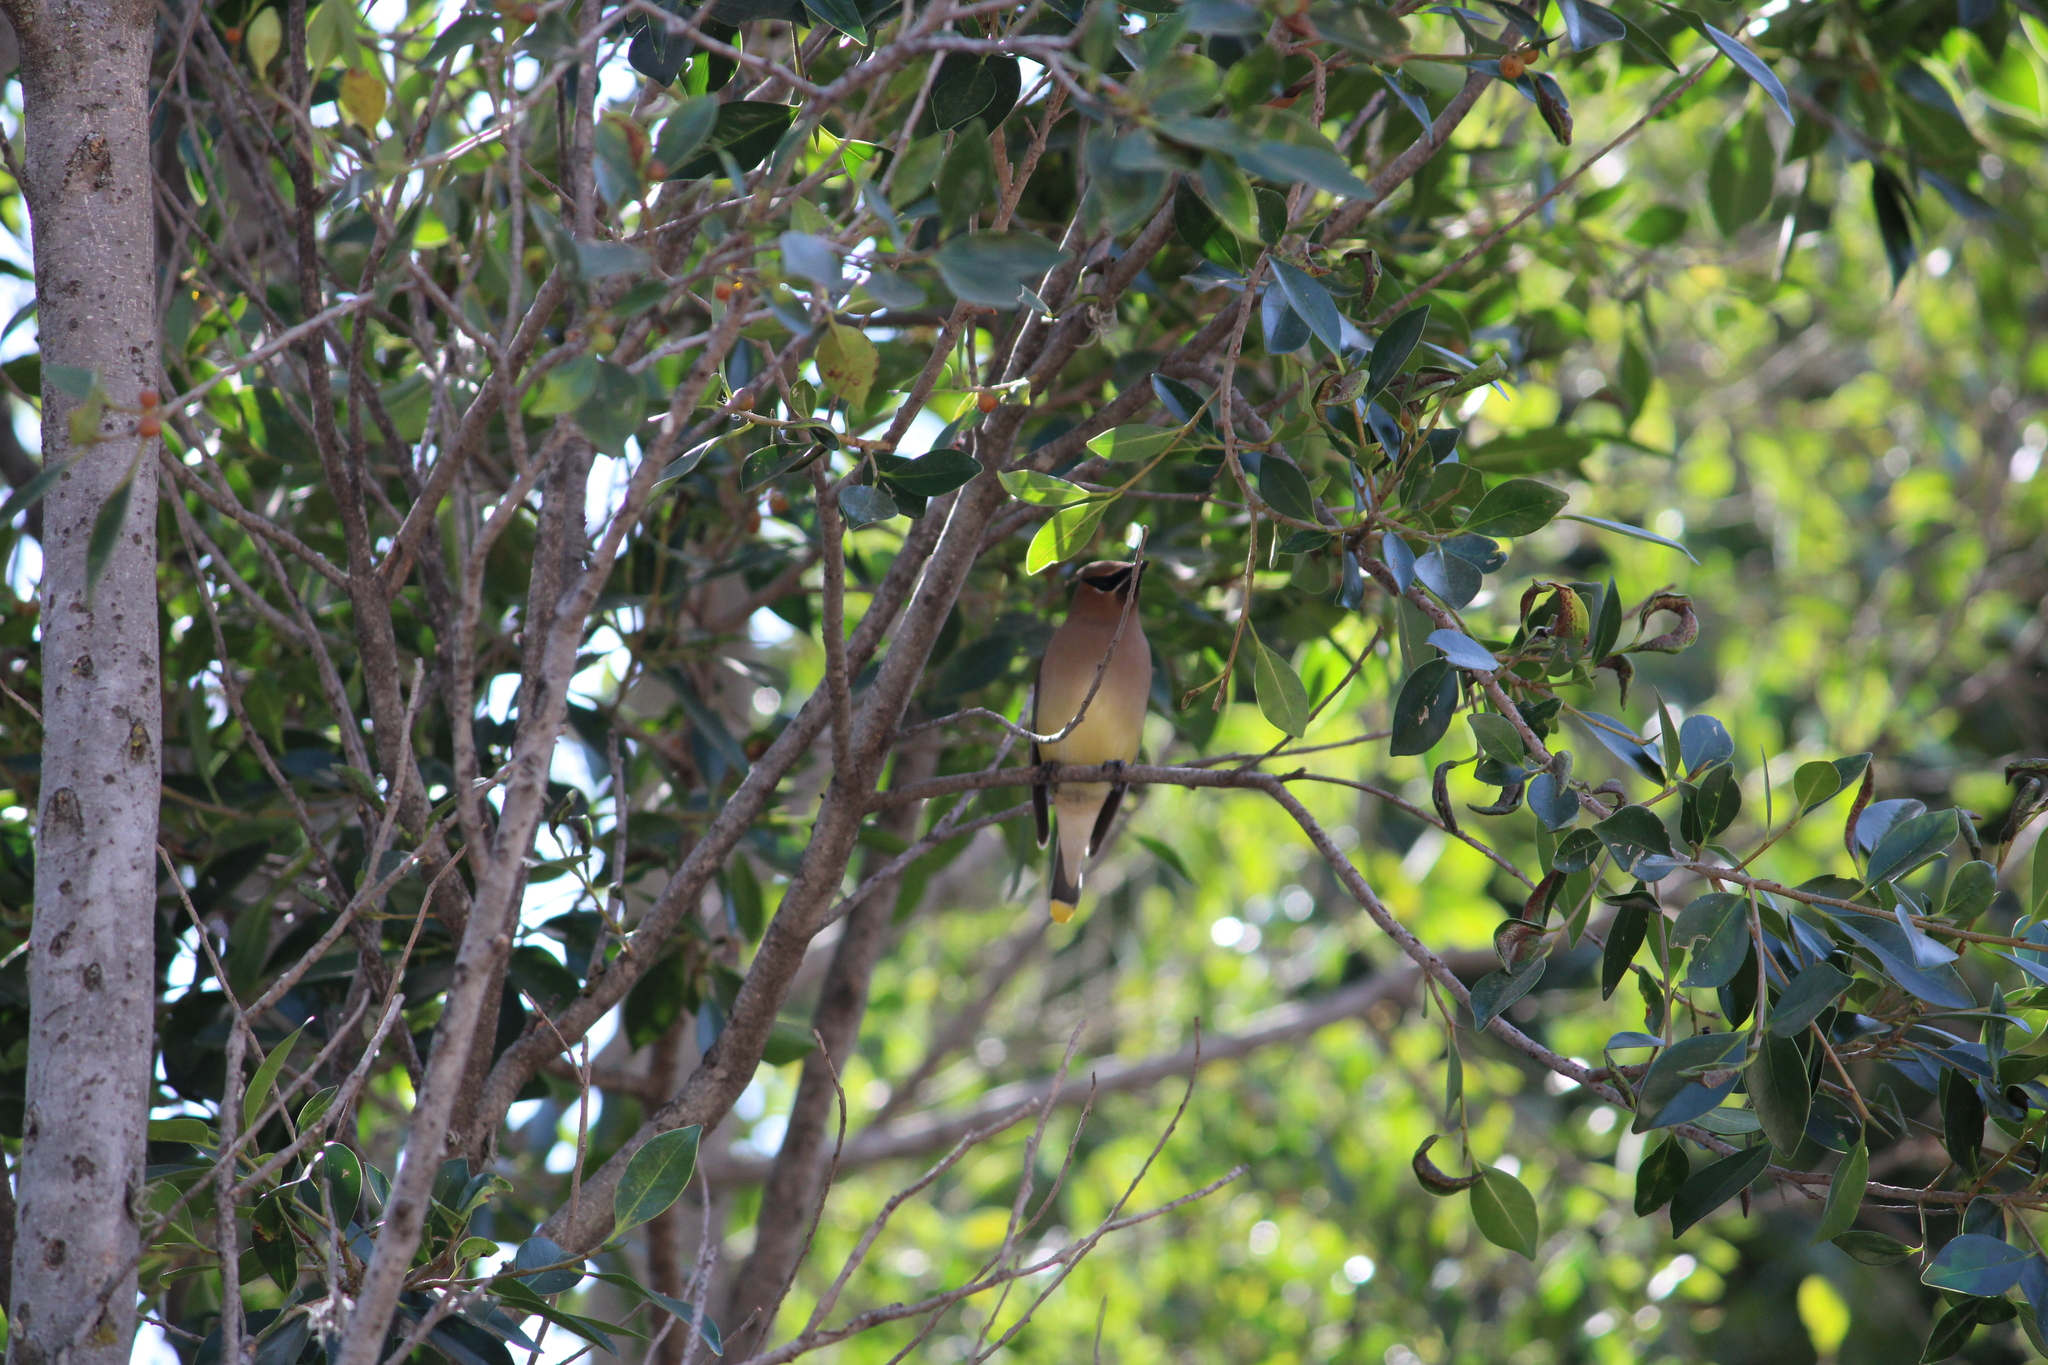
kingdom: Animalia
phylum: Chordata
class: Aves
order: Passeriformes
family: Bombycillidae
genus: Bombycilla
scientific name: Bombycilla cedrorum
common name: Cedar waxwing
